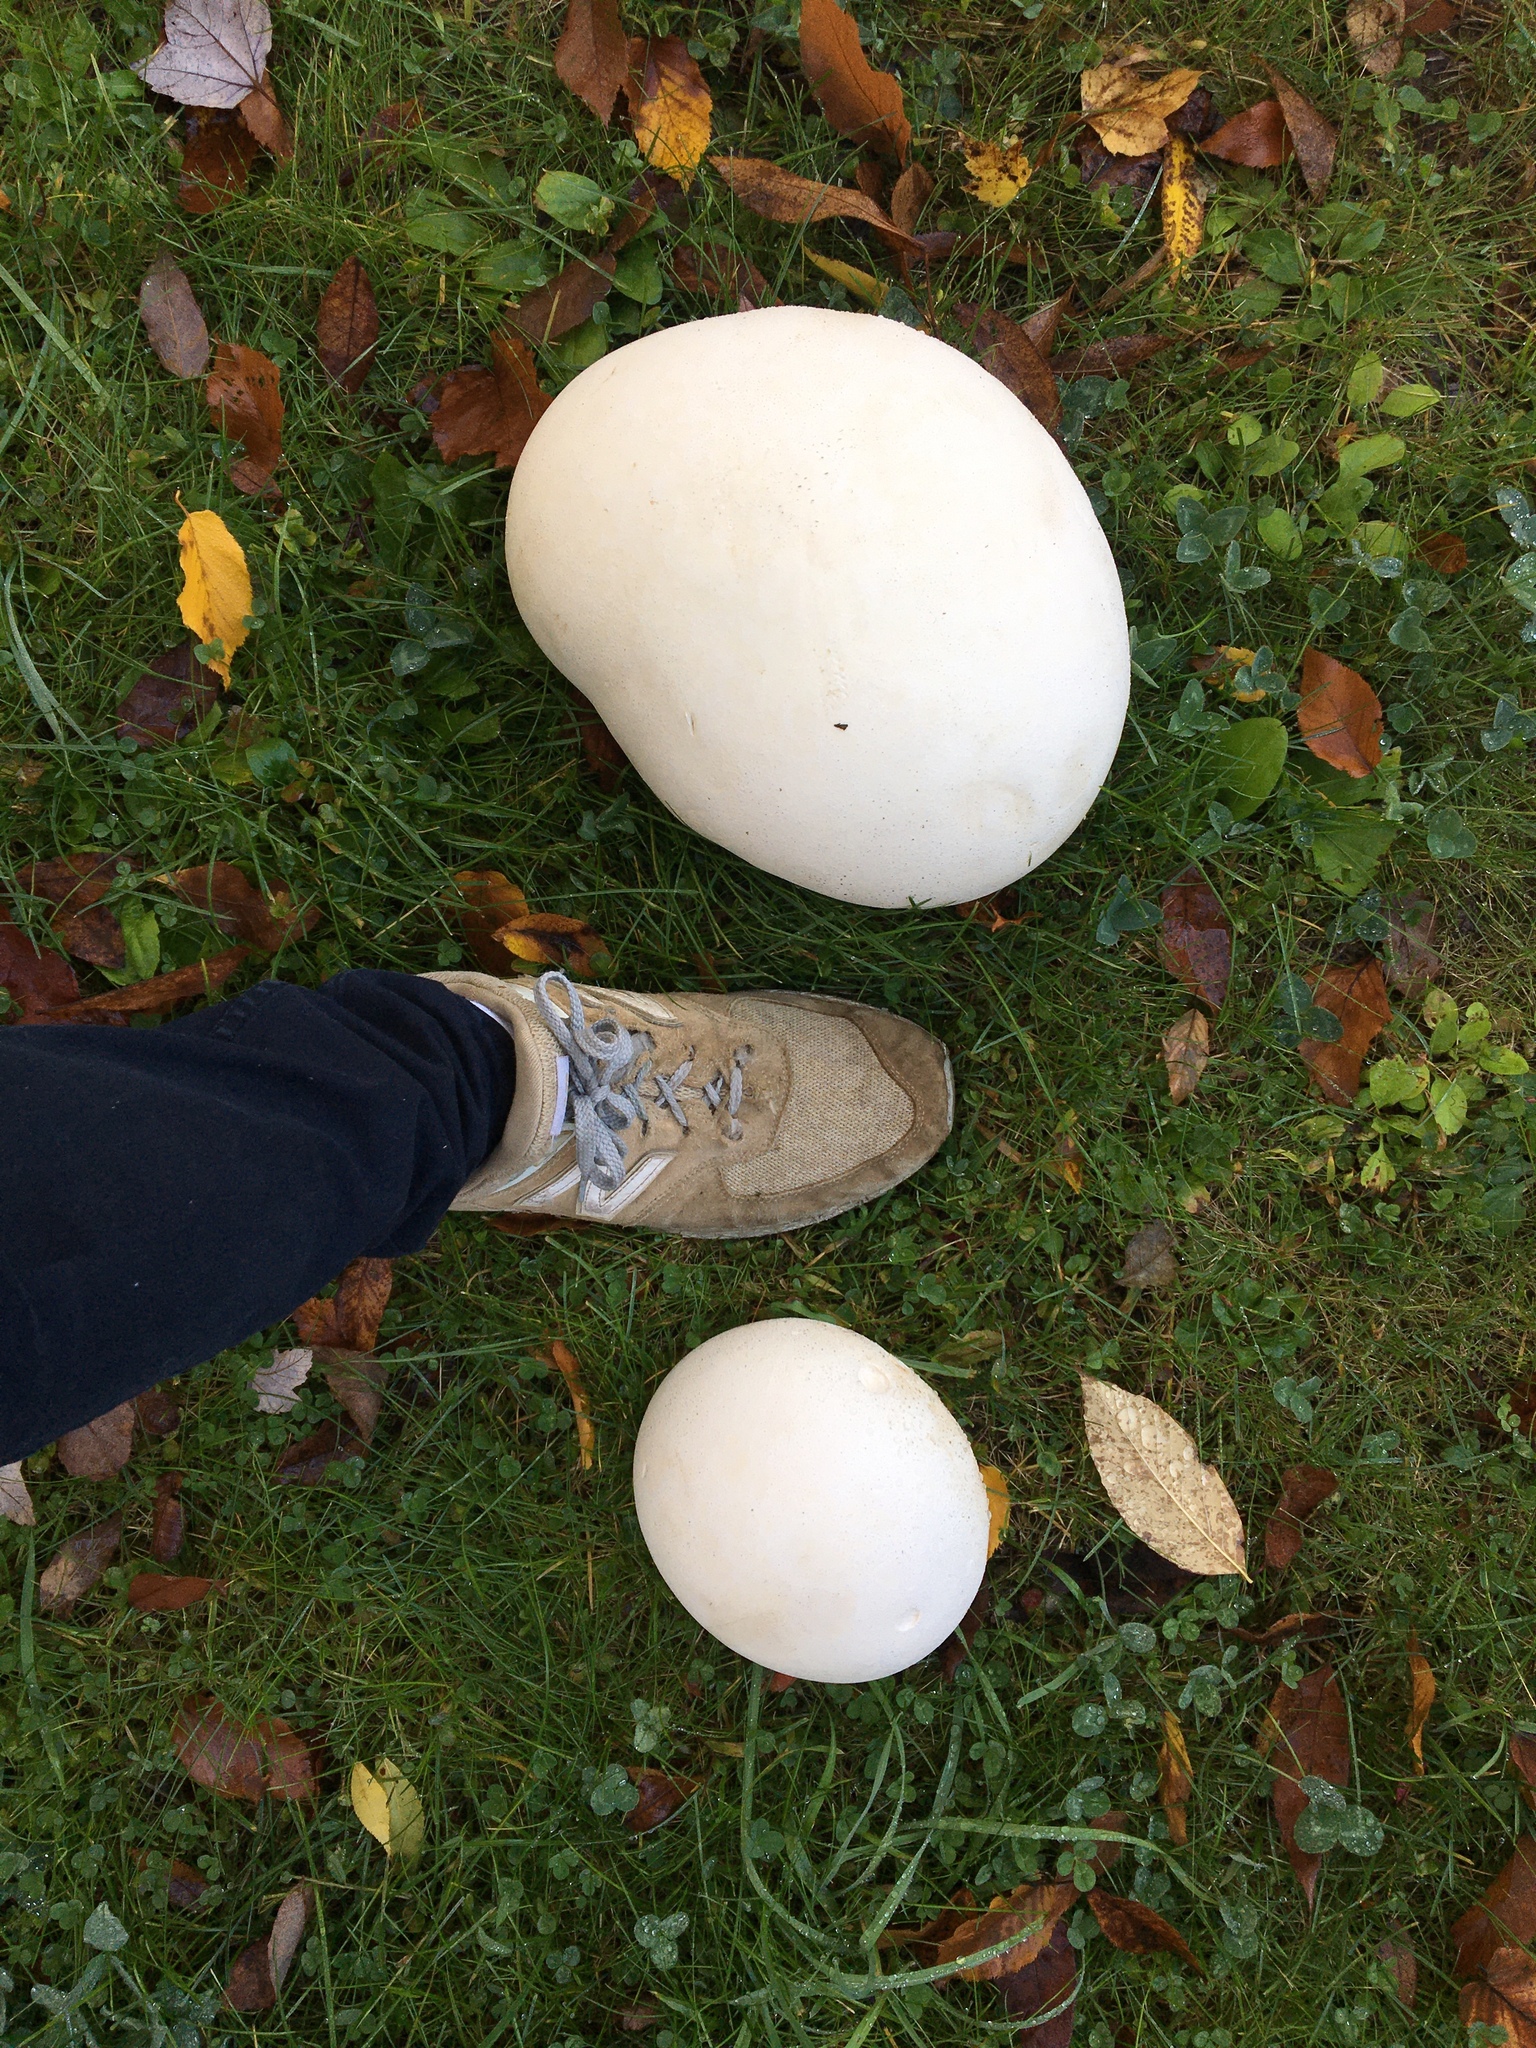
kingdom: Fungi
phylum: Basidiomycota
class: Agaricomycetes
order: Agaricales
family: Lycoperdaceae
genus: Calvatia
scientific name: Calvatia gigantea
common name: Giant puffball
